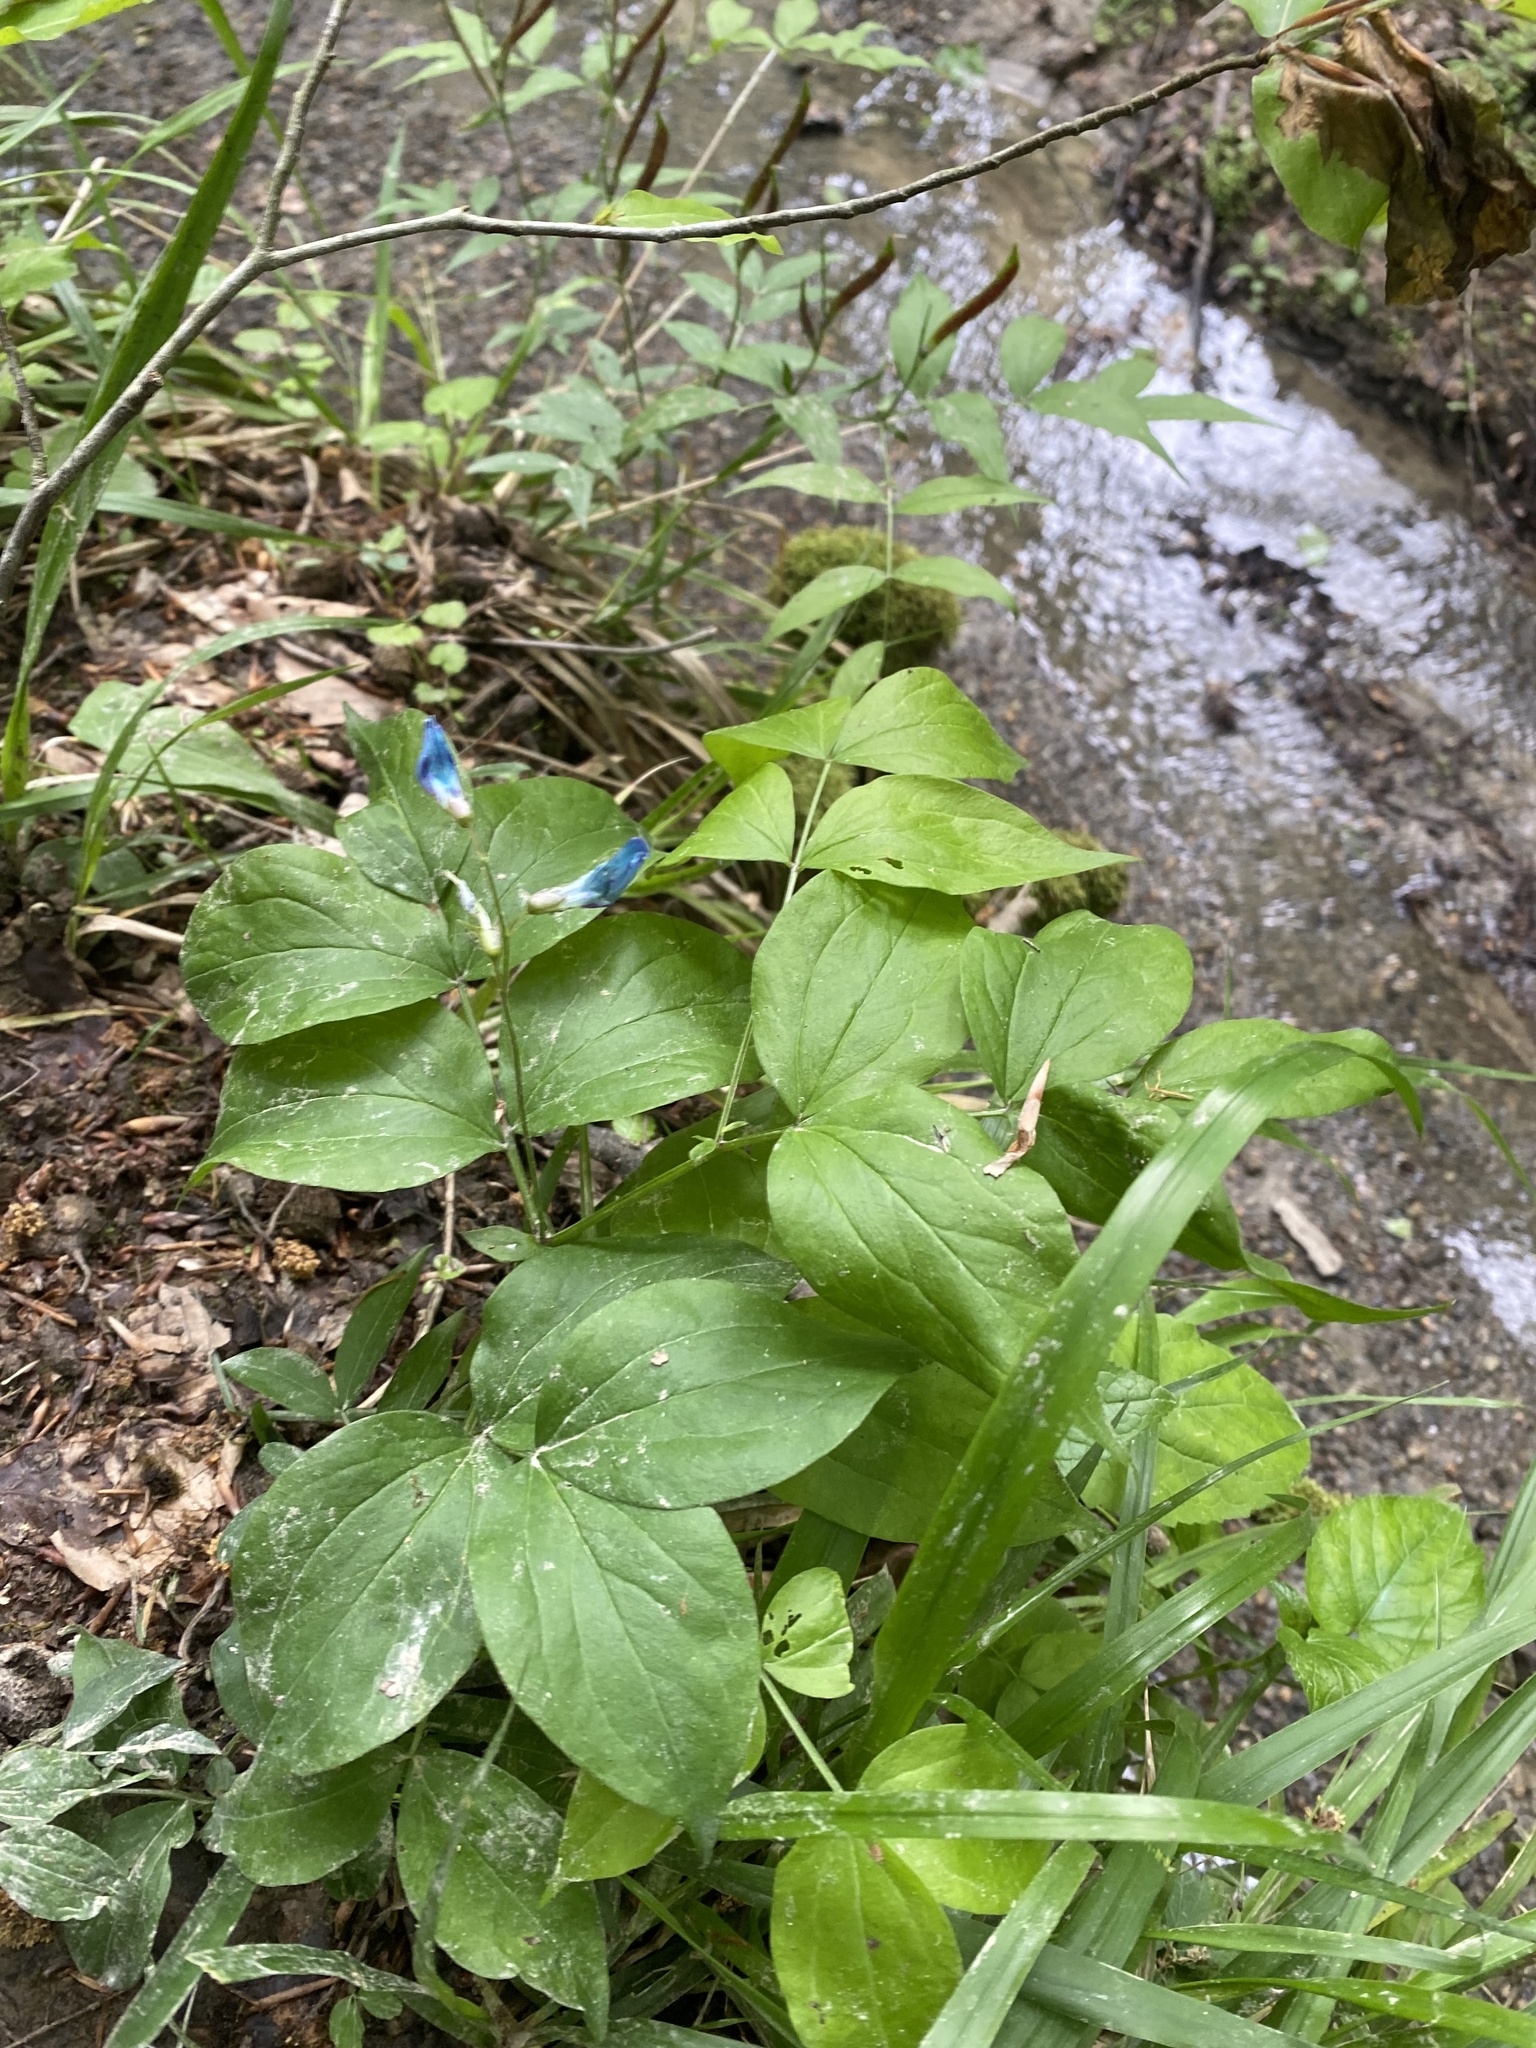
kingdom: Plantae
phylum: Tracheophyta
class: Magnoliopsida
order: Fabales
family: Fabaceae
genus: Lathyrus
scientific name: Lathyrus vernus
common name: Spring pea
